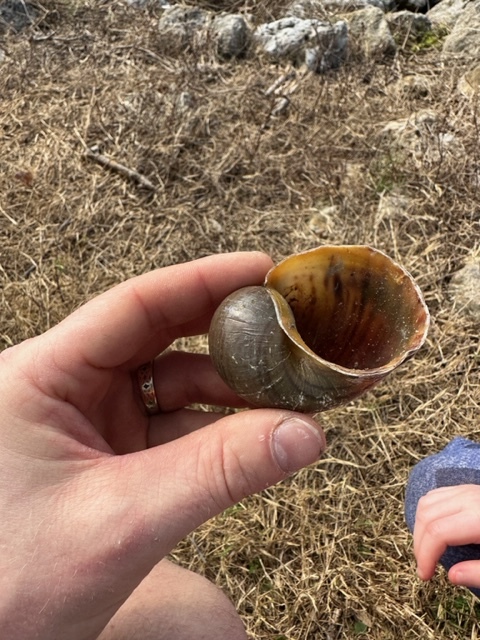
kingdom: Animalia
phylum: Mollusca
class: Gastropoda
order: Architaenioglossa
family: Ampullariidae
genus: Pomacea
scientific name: Pomacea maculata
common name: Giant applesnail
